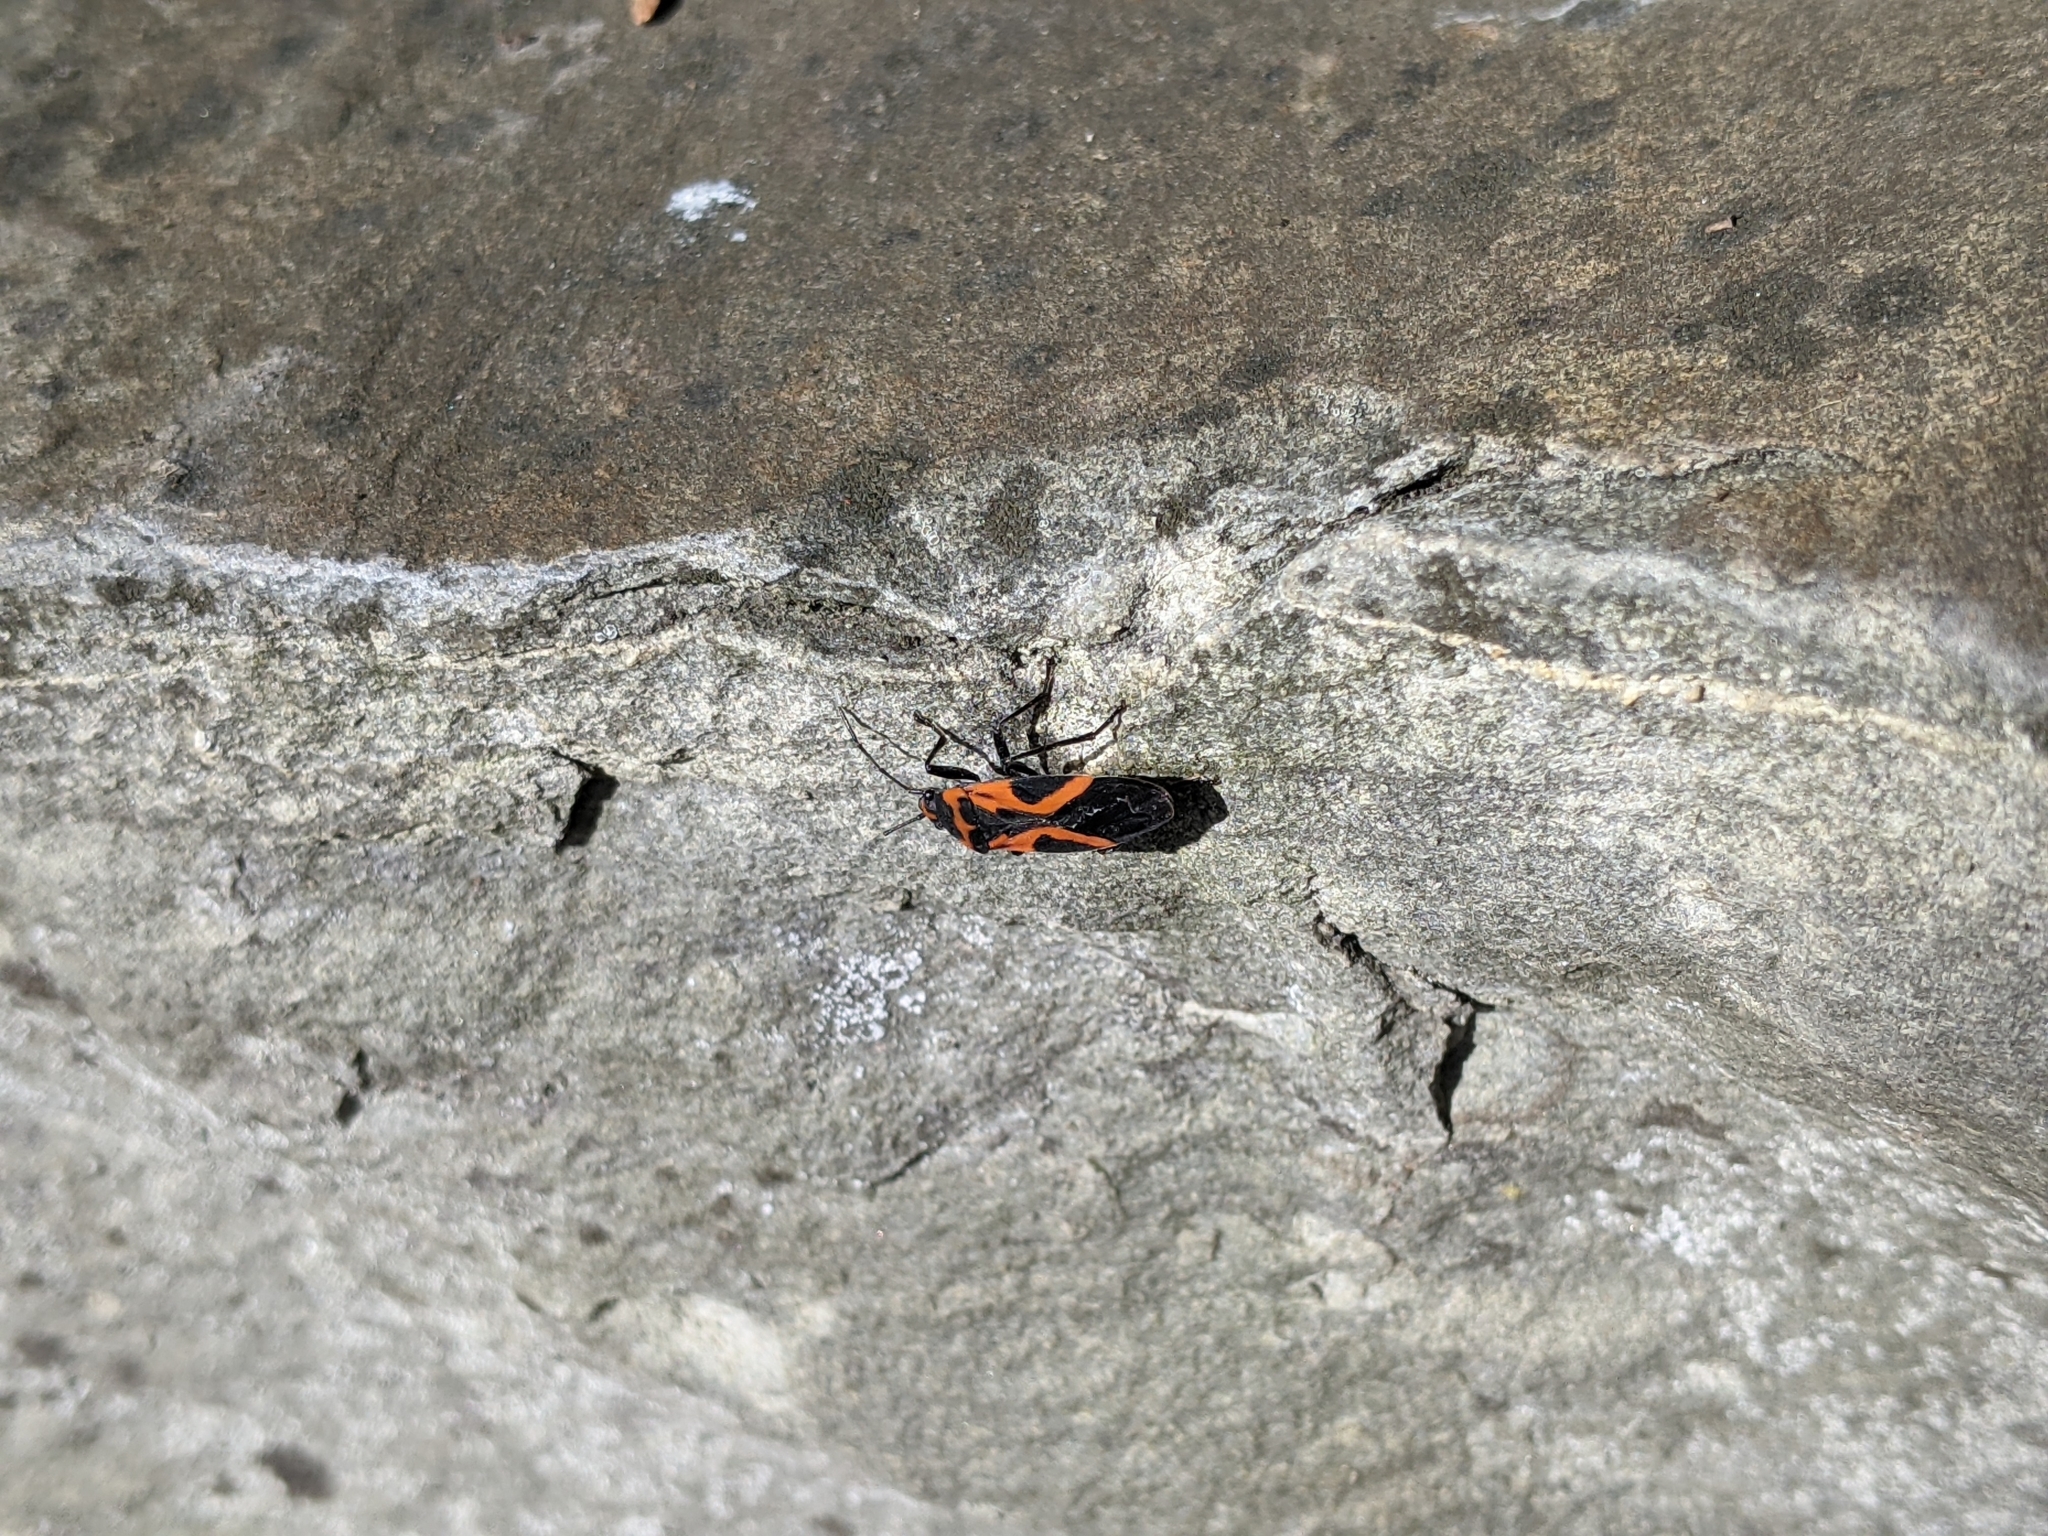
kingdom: Animalia
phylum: Arthropoda
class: Insecta
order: Hemiptera
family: Lygaeidae
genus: Lygaeus
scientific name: Lygaeus turcicus
